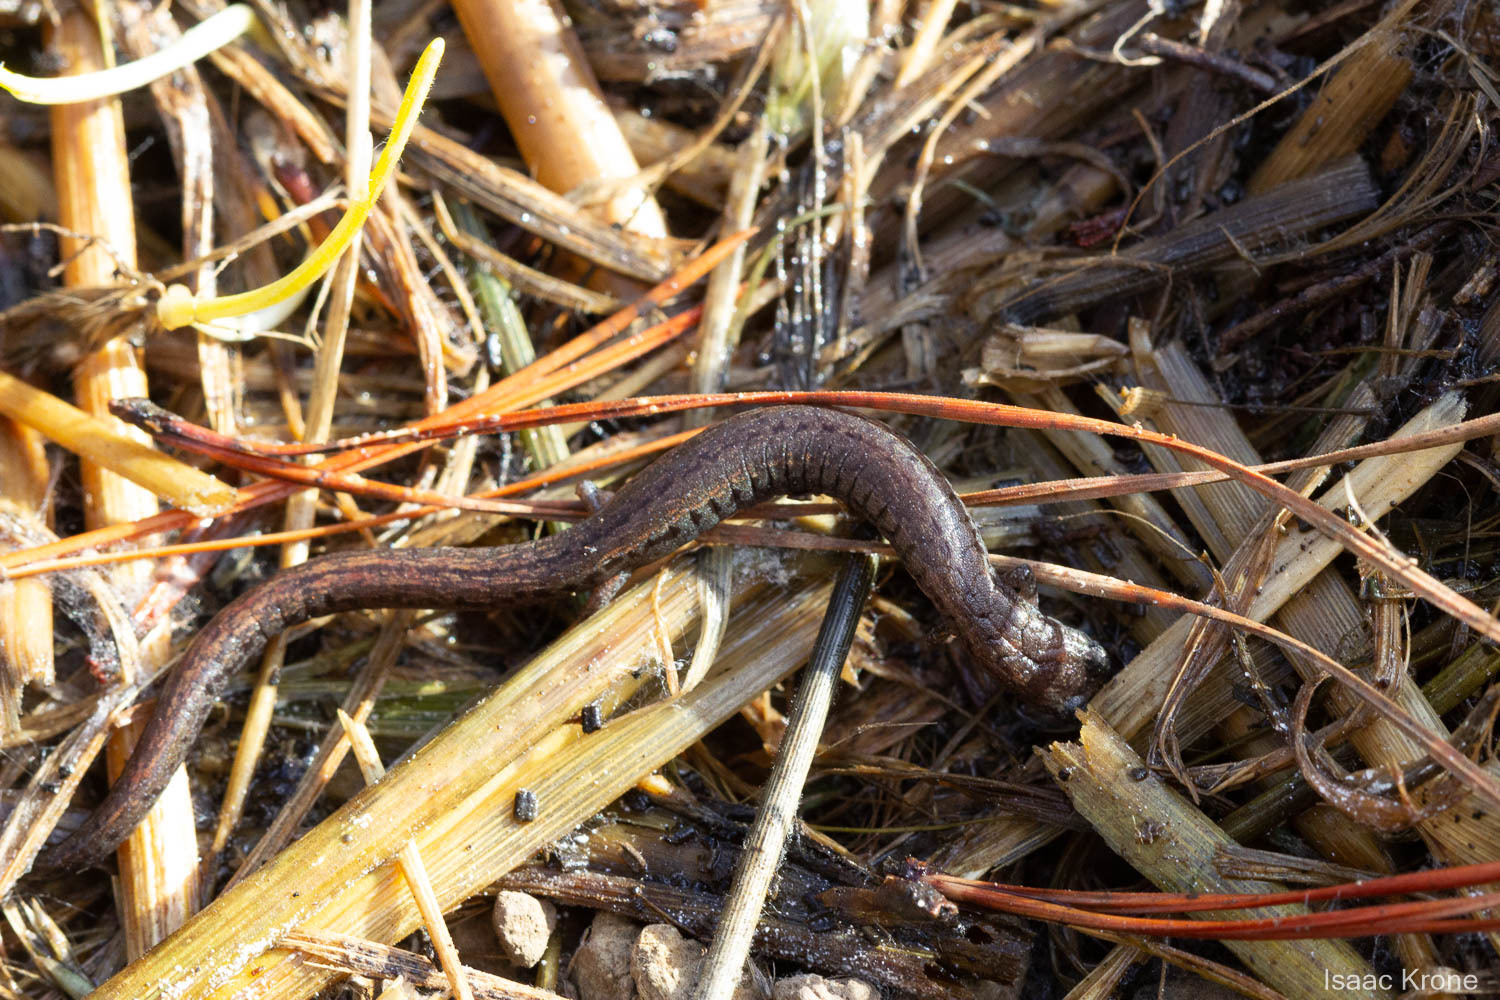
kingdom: Animalia
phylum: Chordata
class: Amphibia
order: Caudata
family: Plethodontidae
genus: Batrachoseps
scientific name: Batrachoseps attenuatus
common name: California slender salamander
